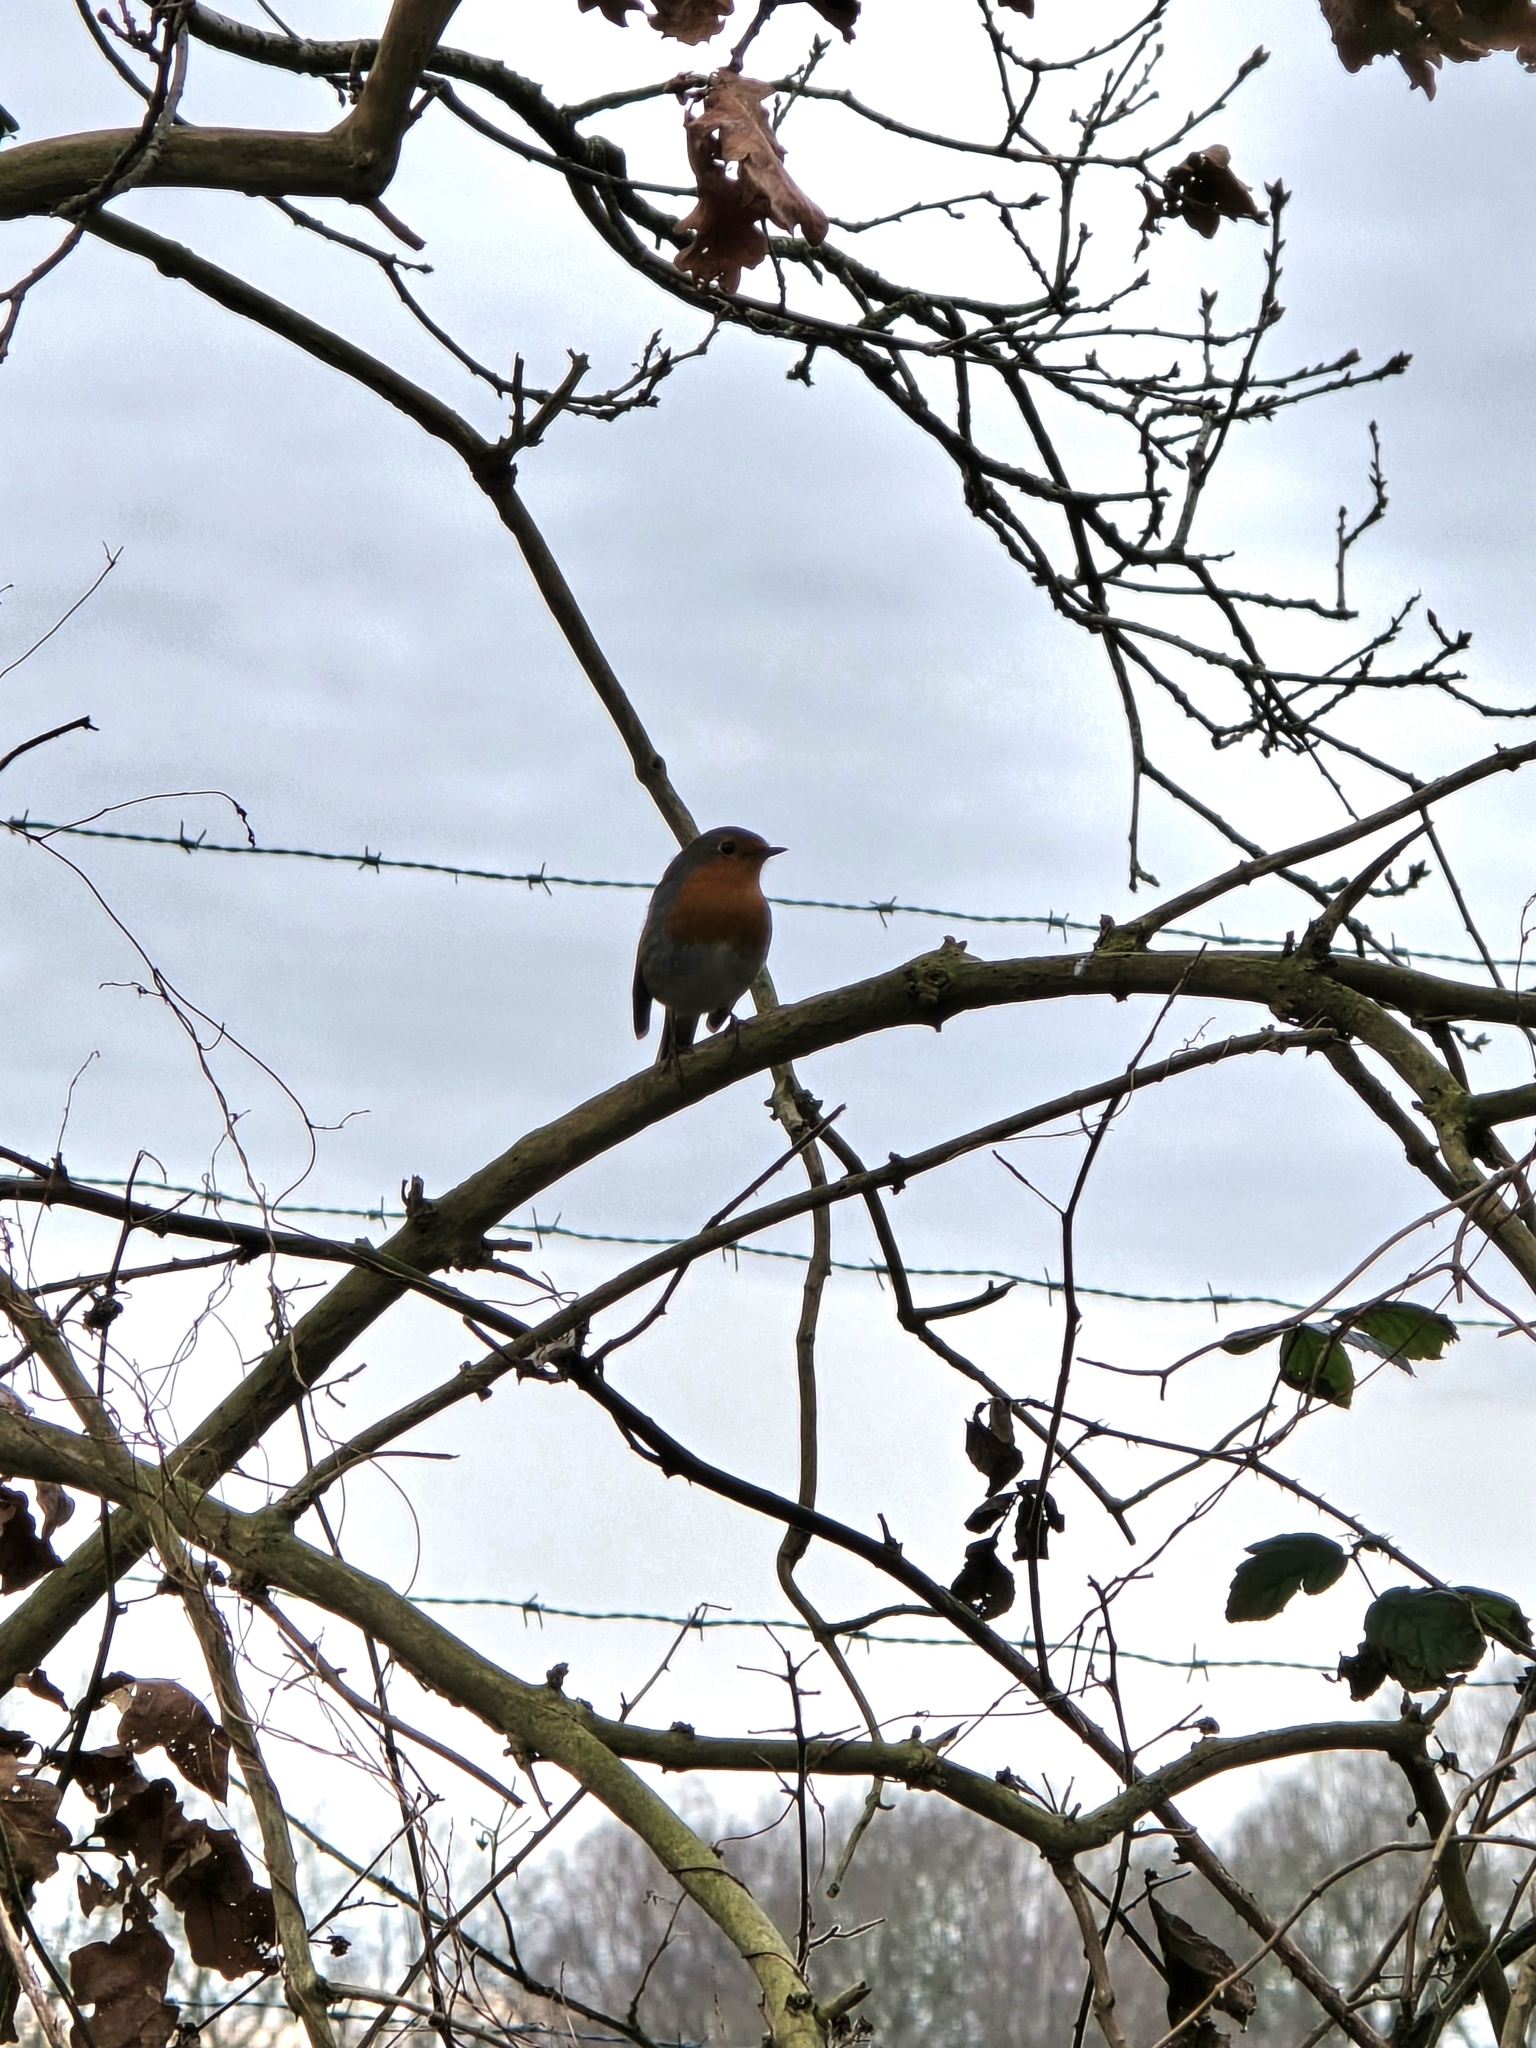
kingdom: Animalia
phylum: Chordata
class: Aves
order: Passeriformes
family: Muscicapidae
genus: Erithacus
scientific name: Erithacus rubecula
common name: European robin
